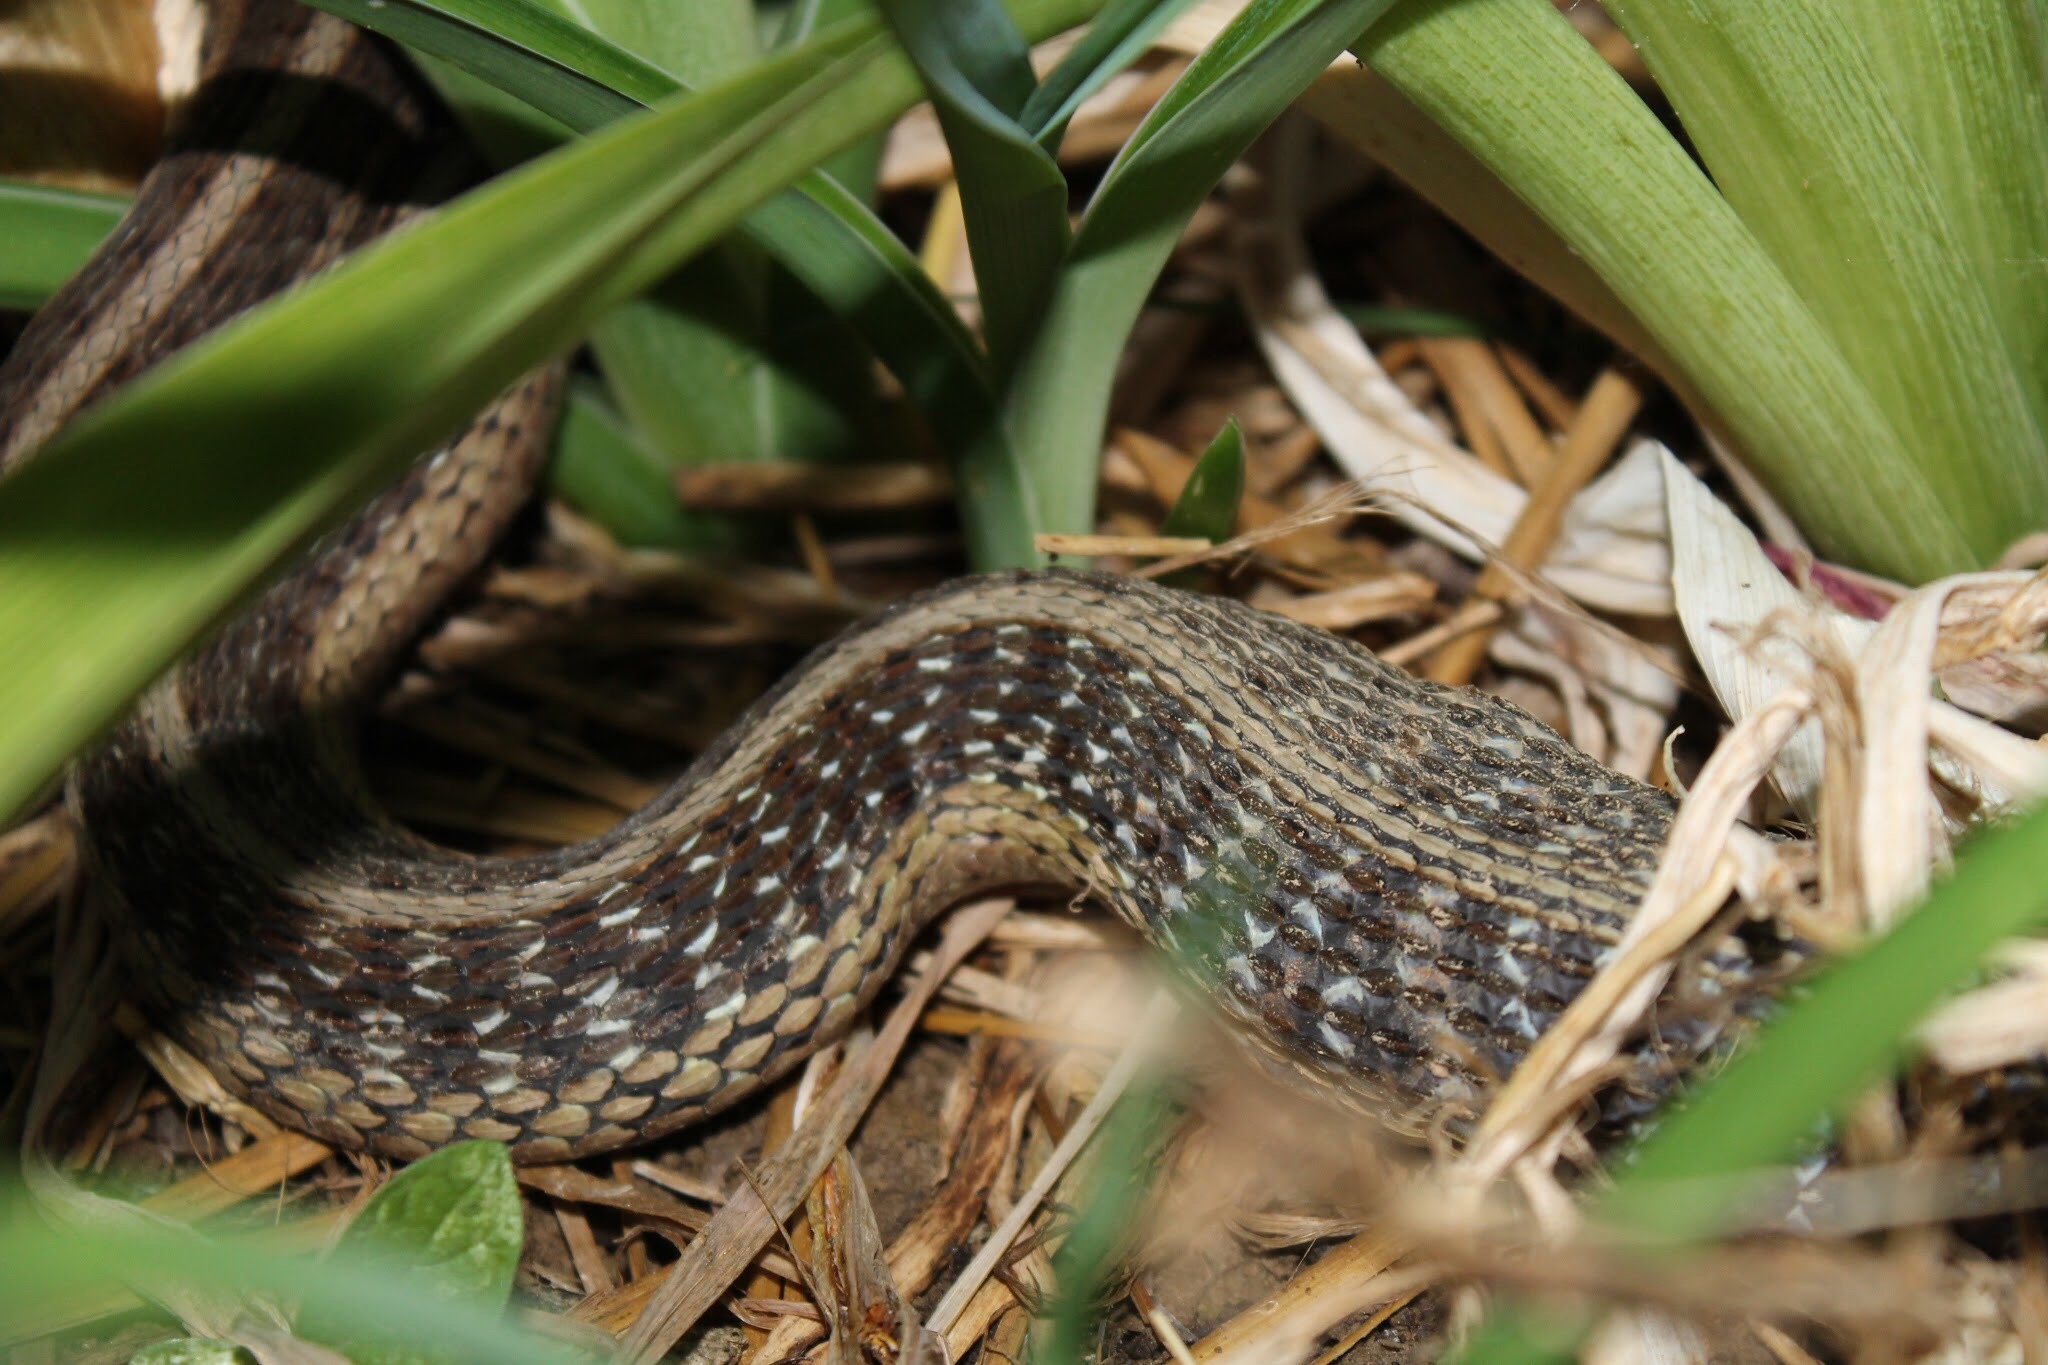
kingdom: Animalia
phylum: Chordata
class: Squamata
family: Colubridae
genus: Thamnophis
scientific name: Thamnophis sirtalis
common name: Common garter snake
